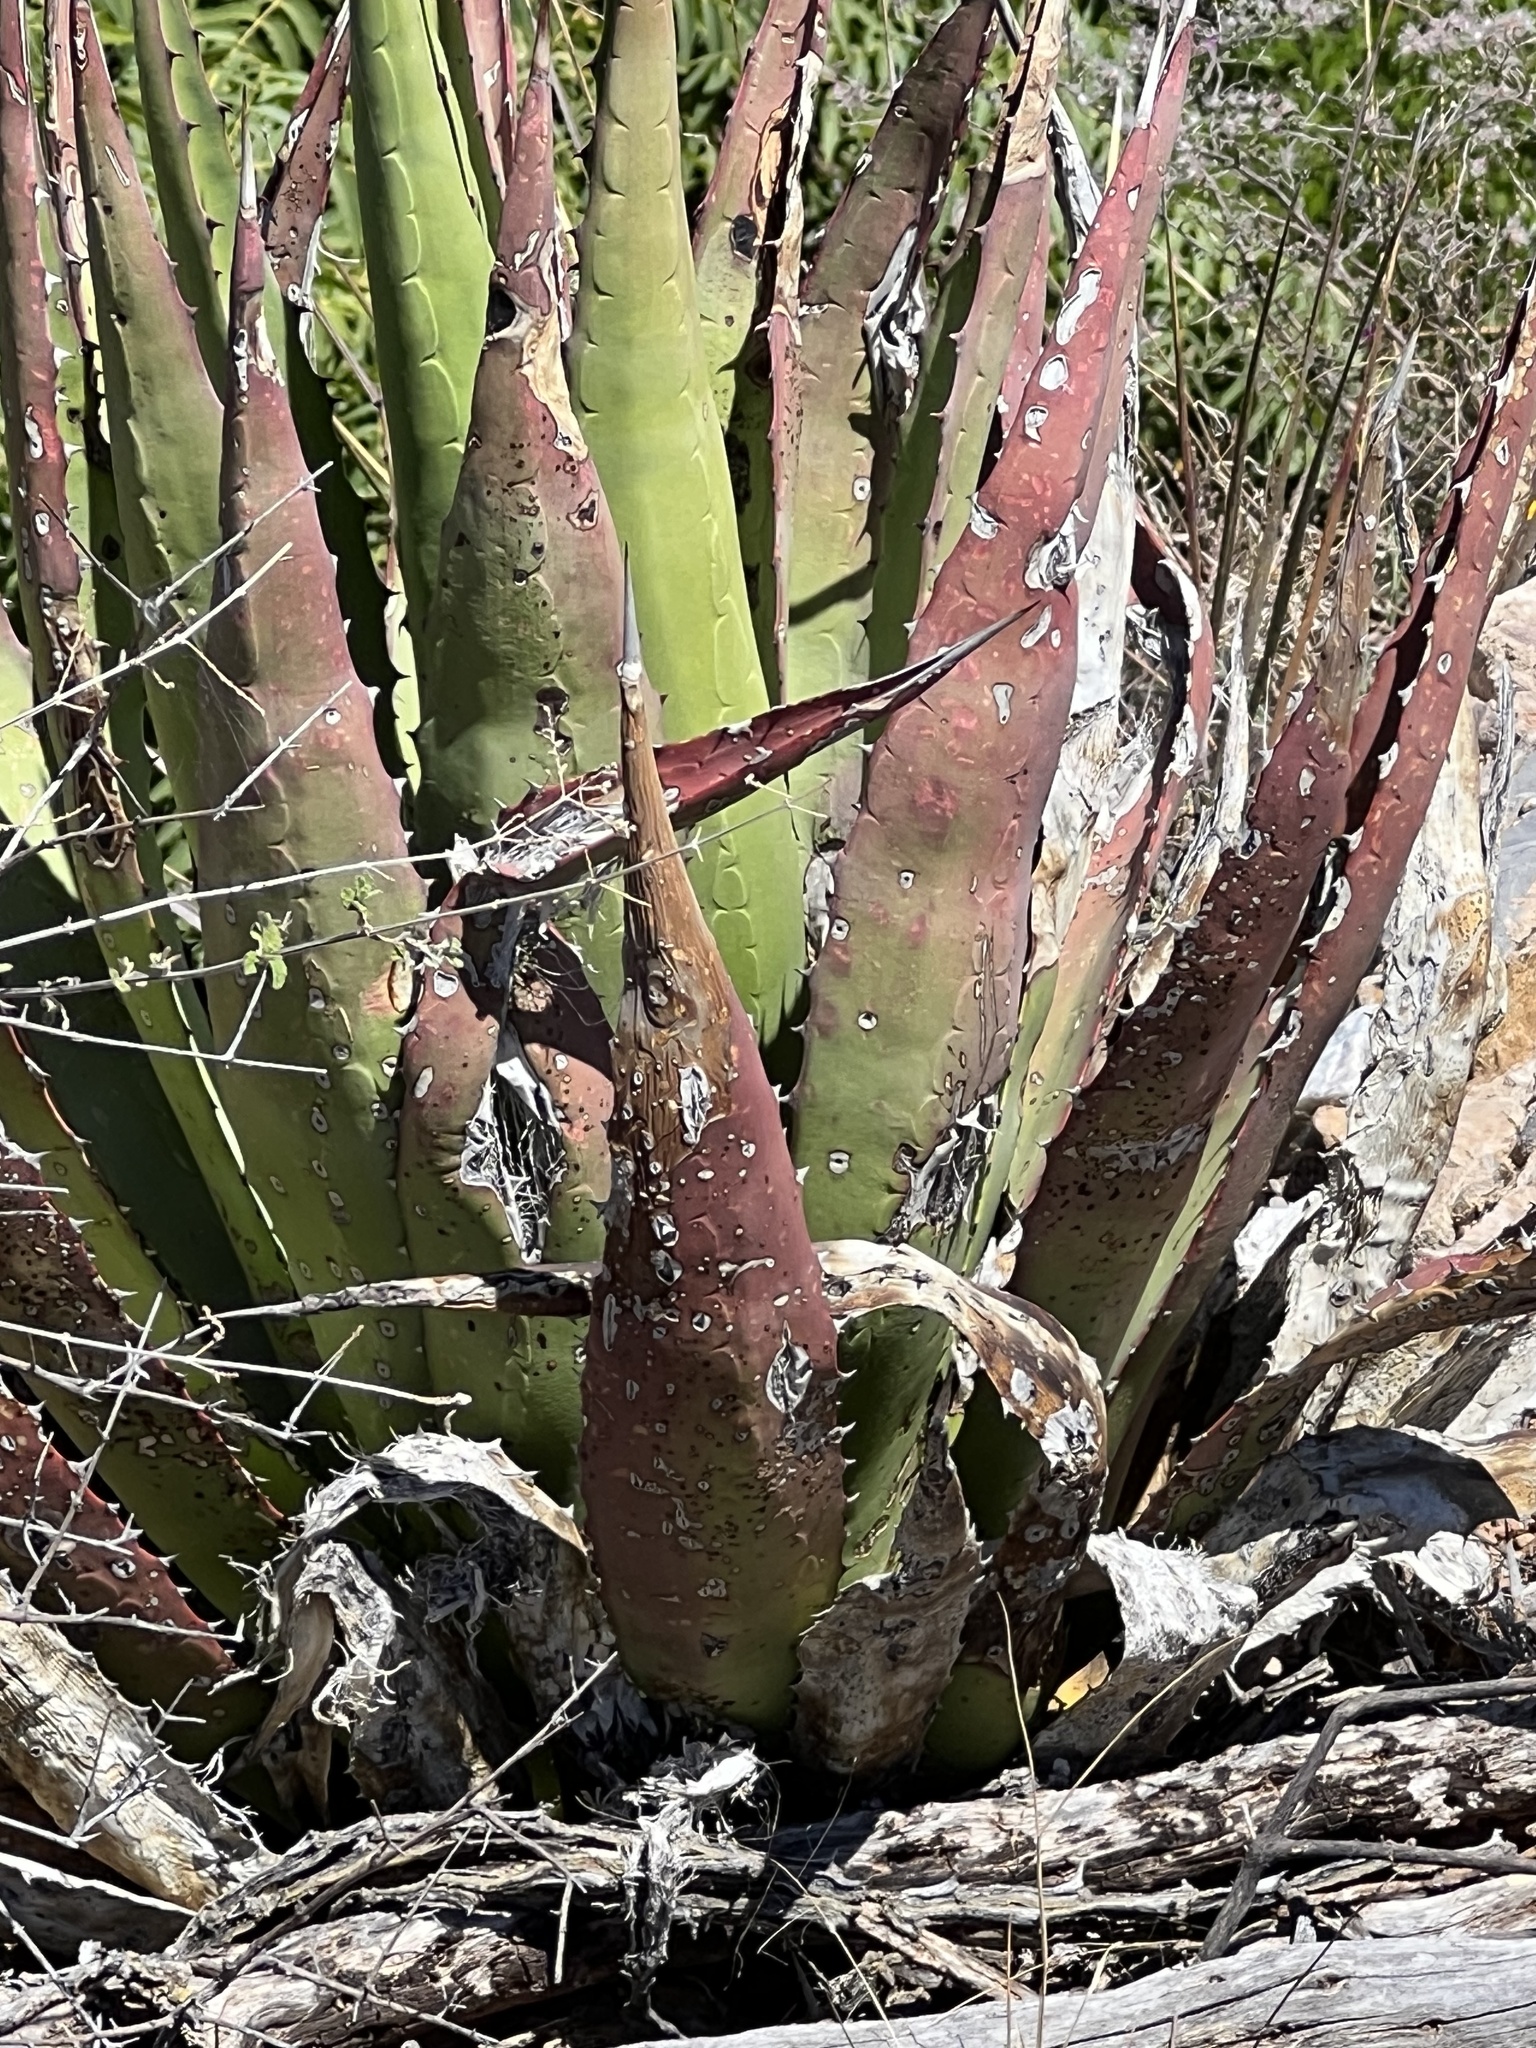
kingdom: Plantae
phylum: Tracheophyta
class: Liliopsida
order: Asparagales
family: Asparagaceae
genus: Agave
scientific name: Agave palmeri
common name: Palmer agave
